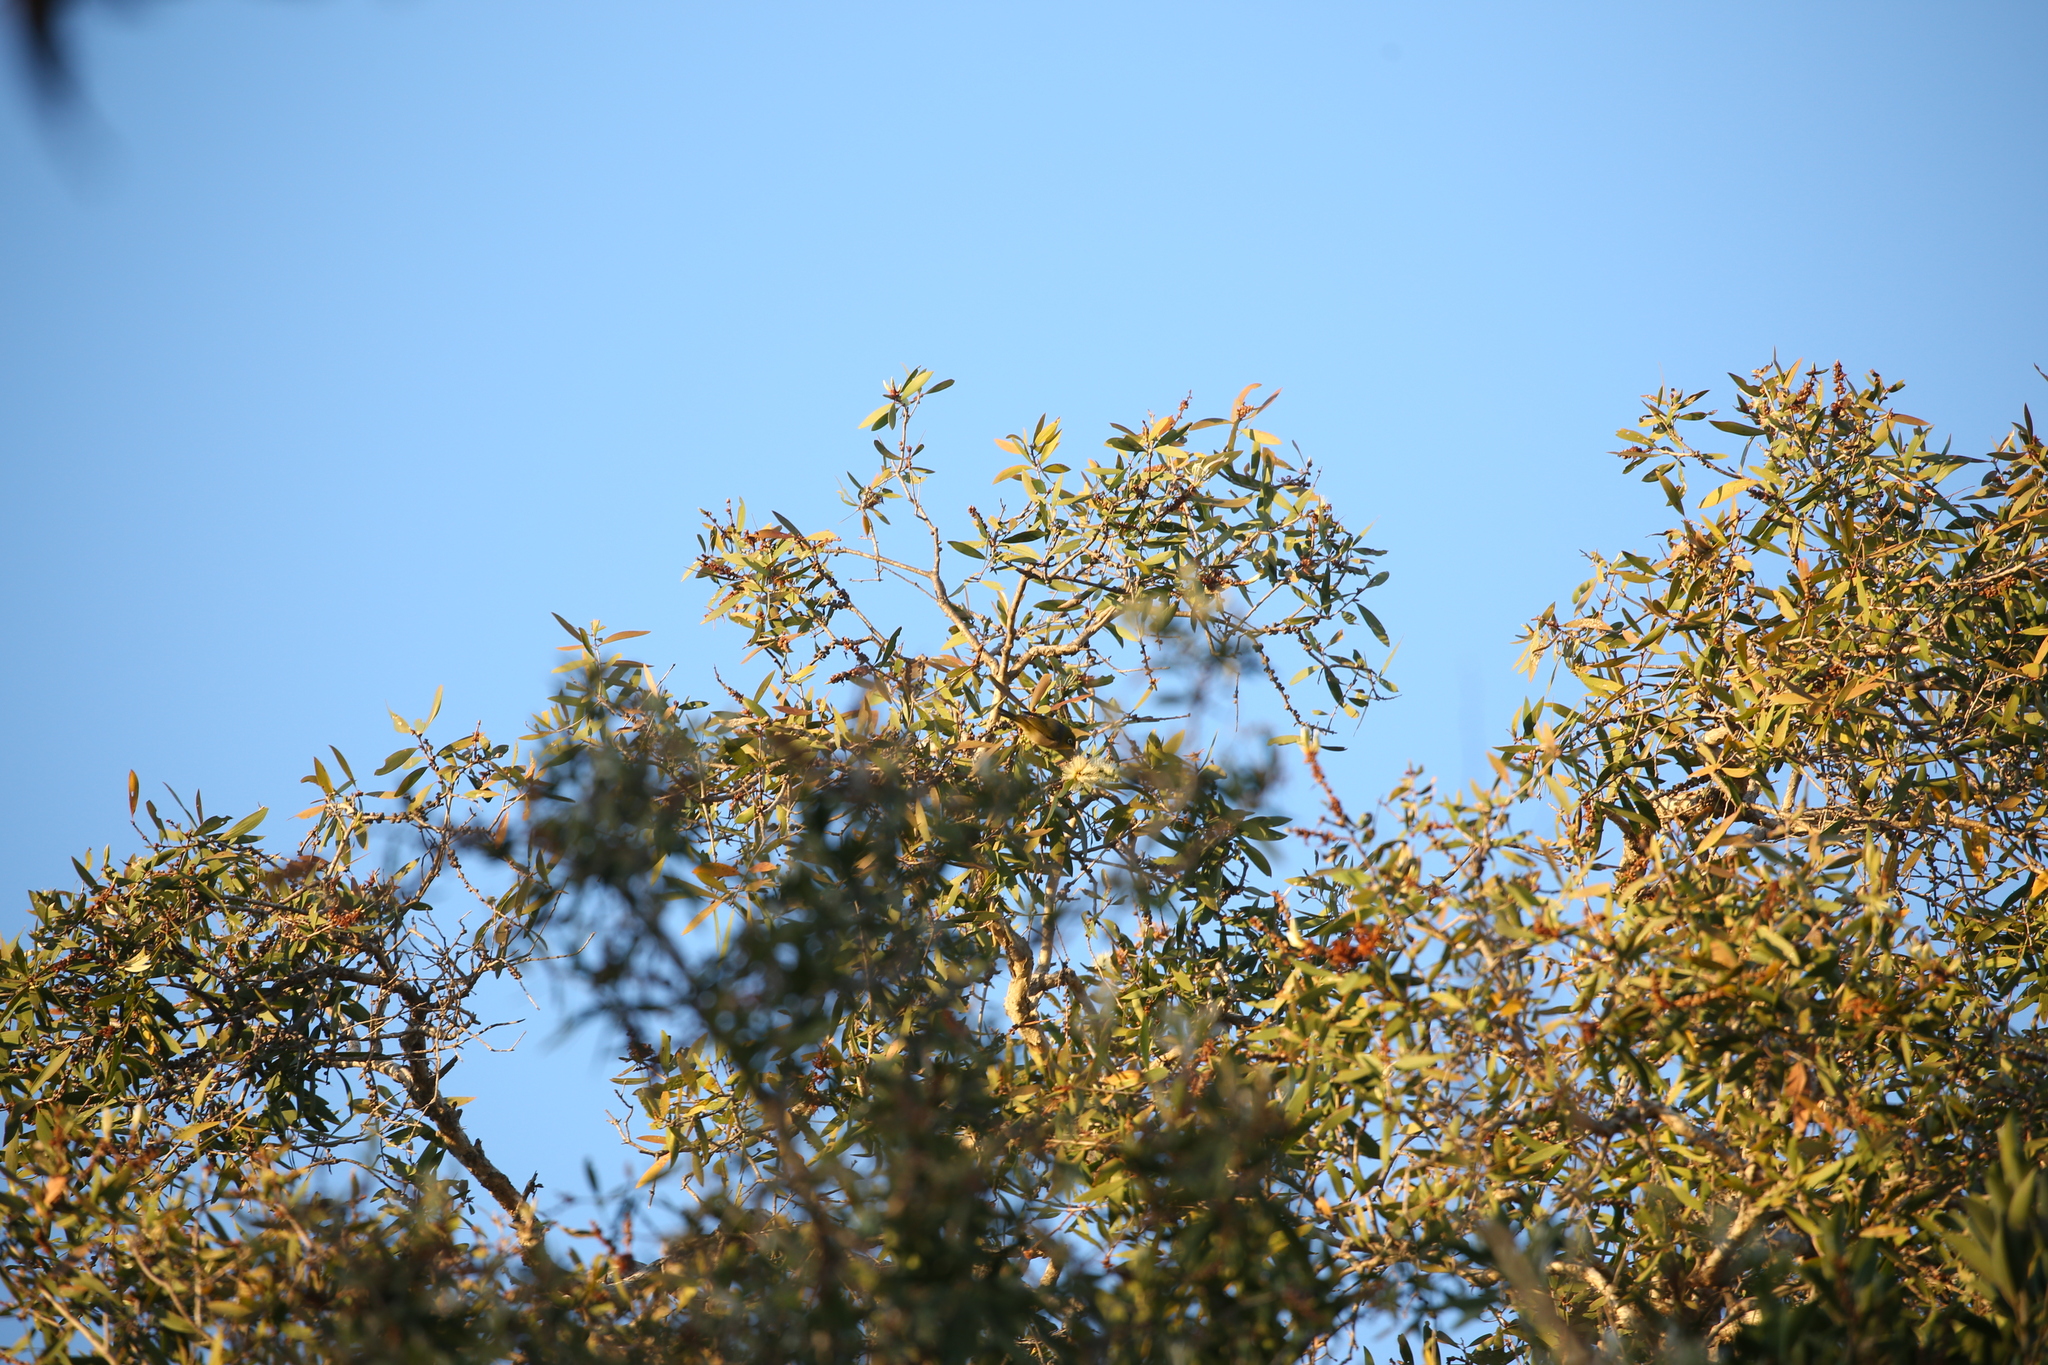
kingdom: Animalia
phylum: Chordata
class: Aves
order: Passeriformes
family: Zosteropidae
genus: Zosterops
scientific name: Zosterops lateralis
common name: Silvereye
